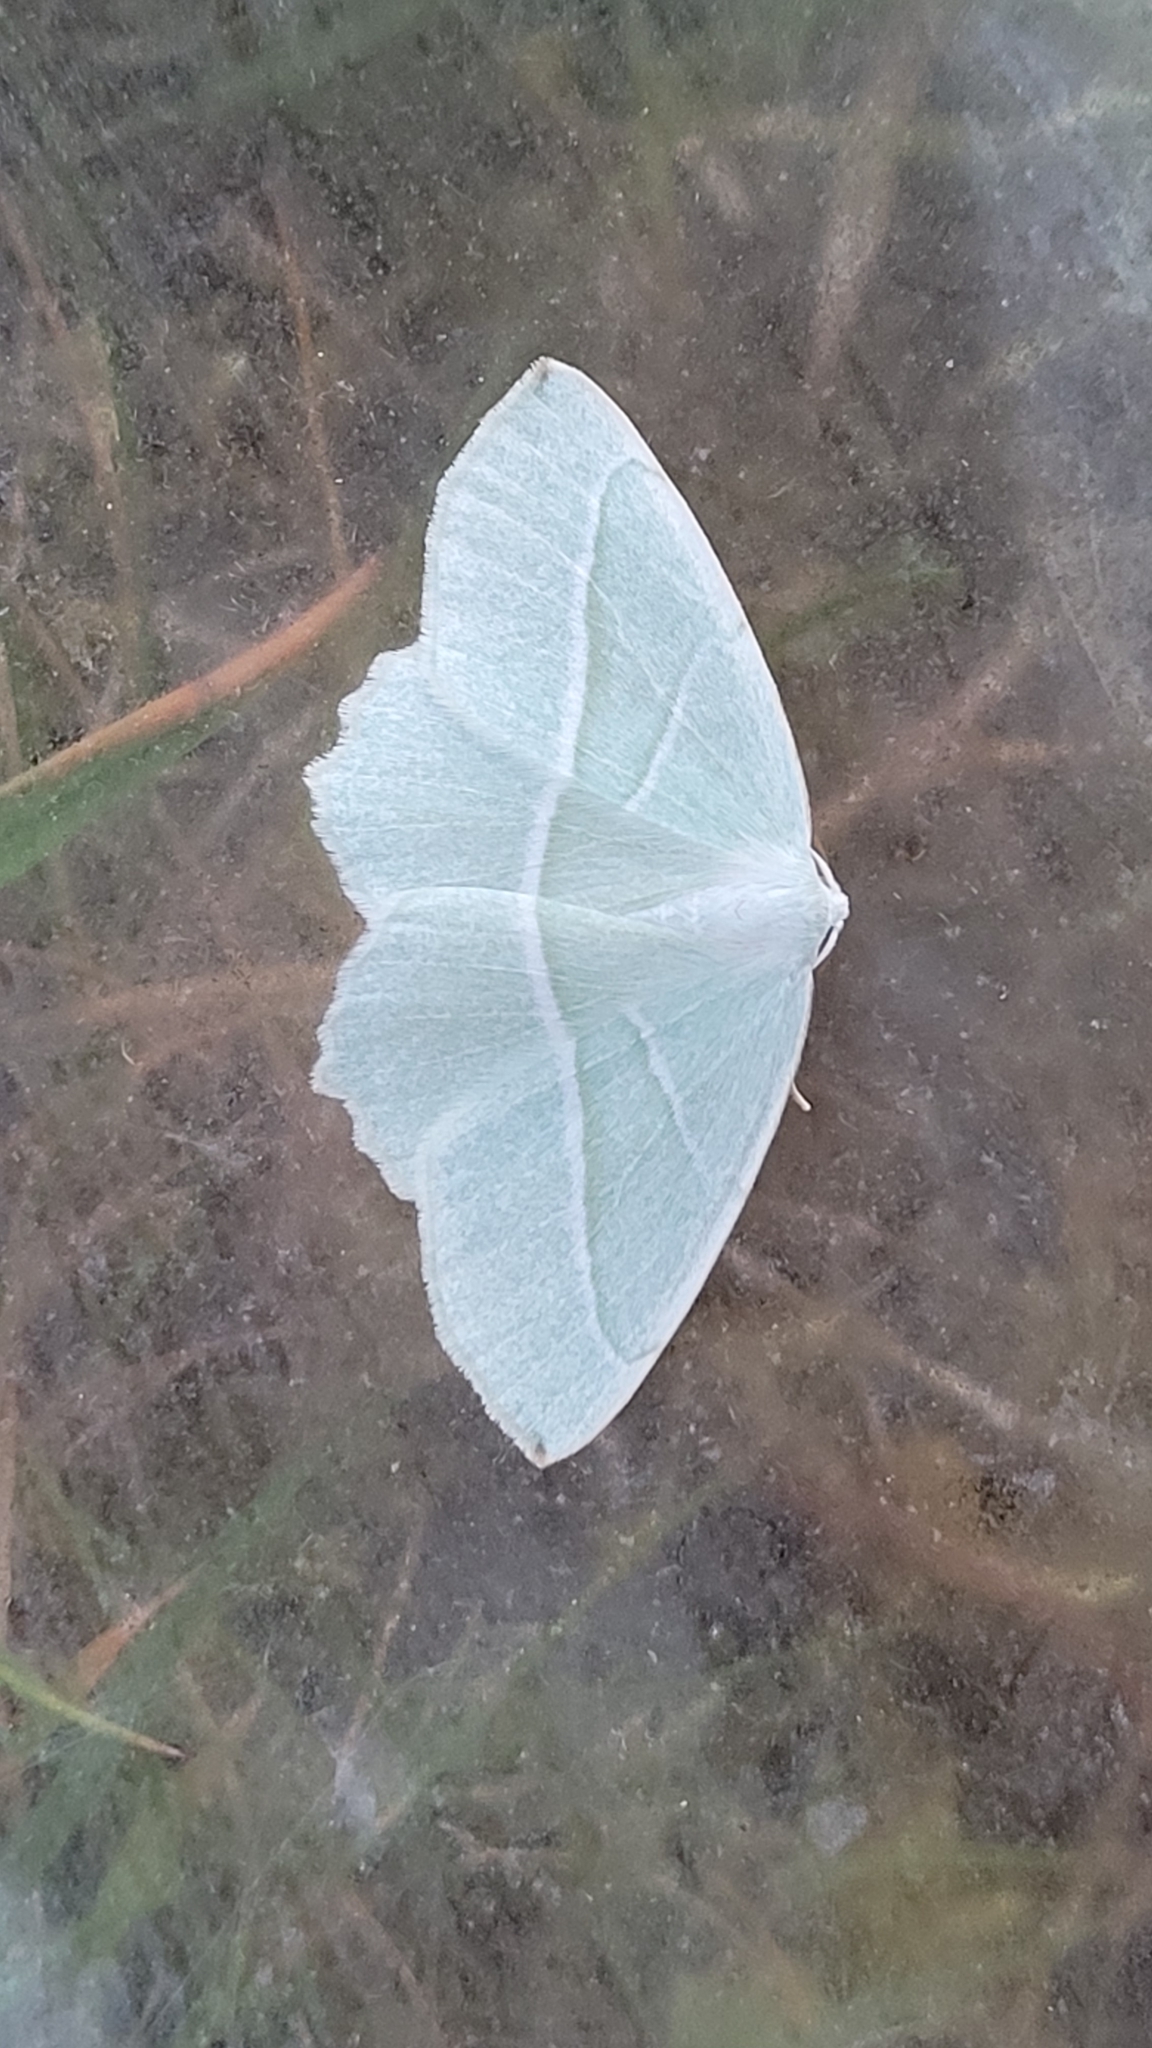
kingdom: Animalia
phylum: Arthropoda
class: Insecta
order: Lepidoptera
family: Geometridae
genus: Campaea
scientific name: Campaea margaritaria
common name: Light emerald
